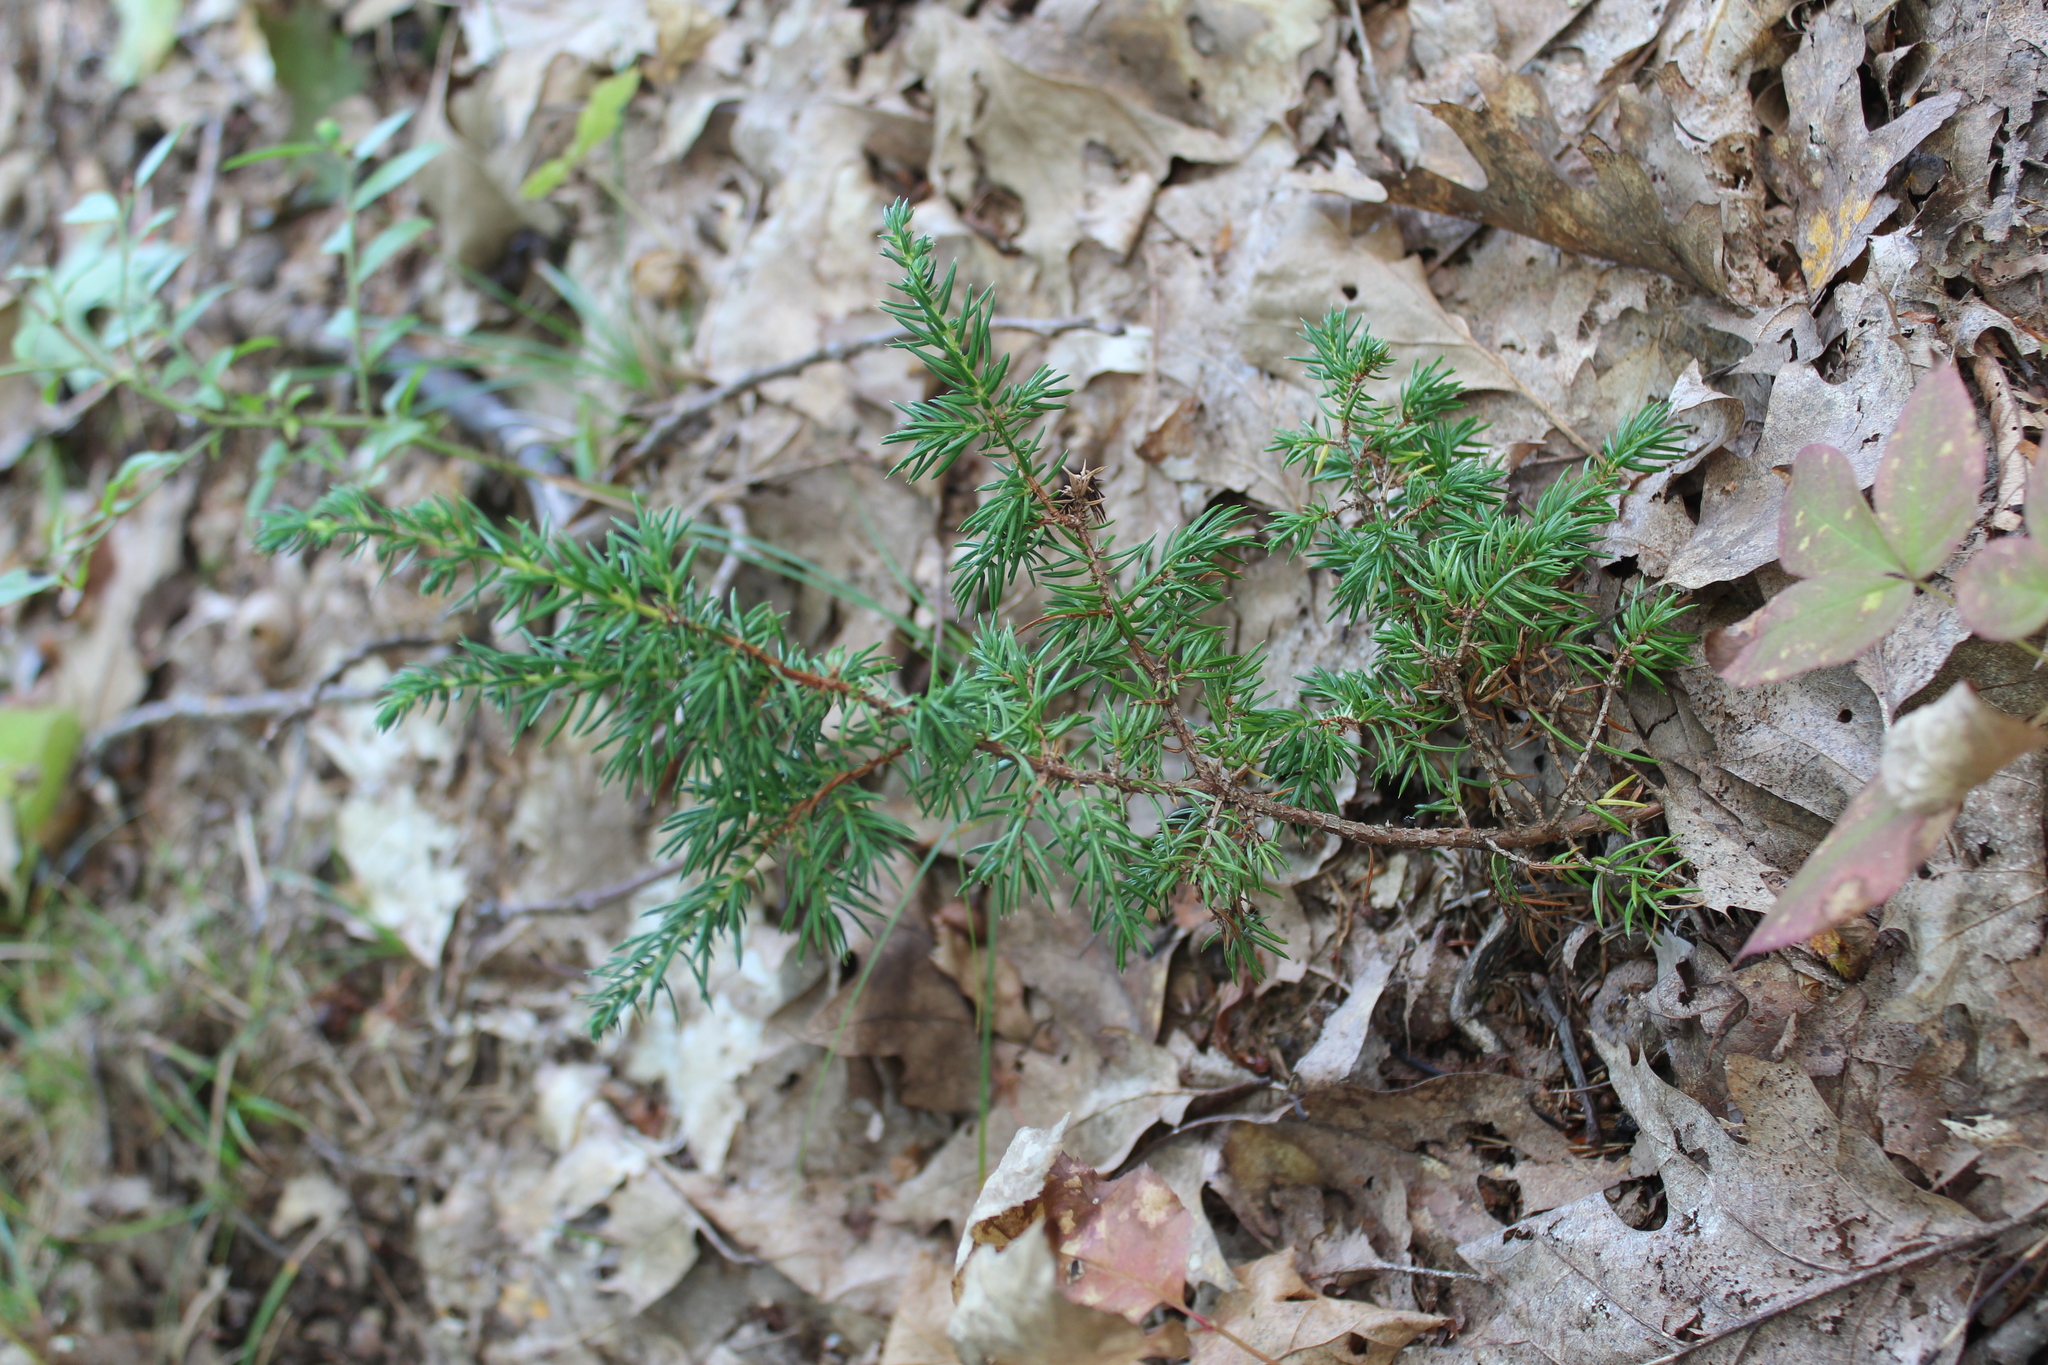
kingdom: Plantae
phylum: Tracheophyta
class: Pinopsida
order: Pinales
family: Cupressaceae
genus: Juniperus
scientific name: Juniperus communis
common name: Common juniper
